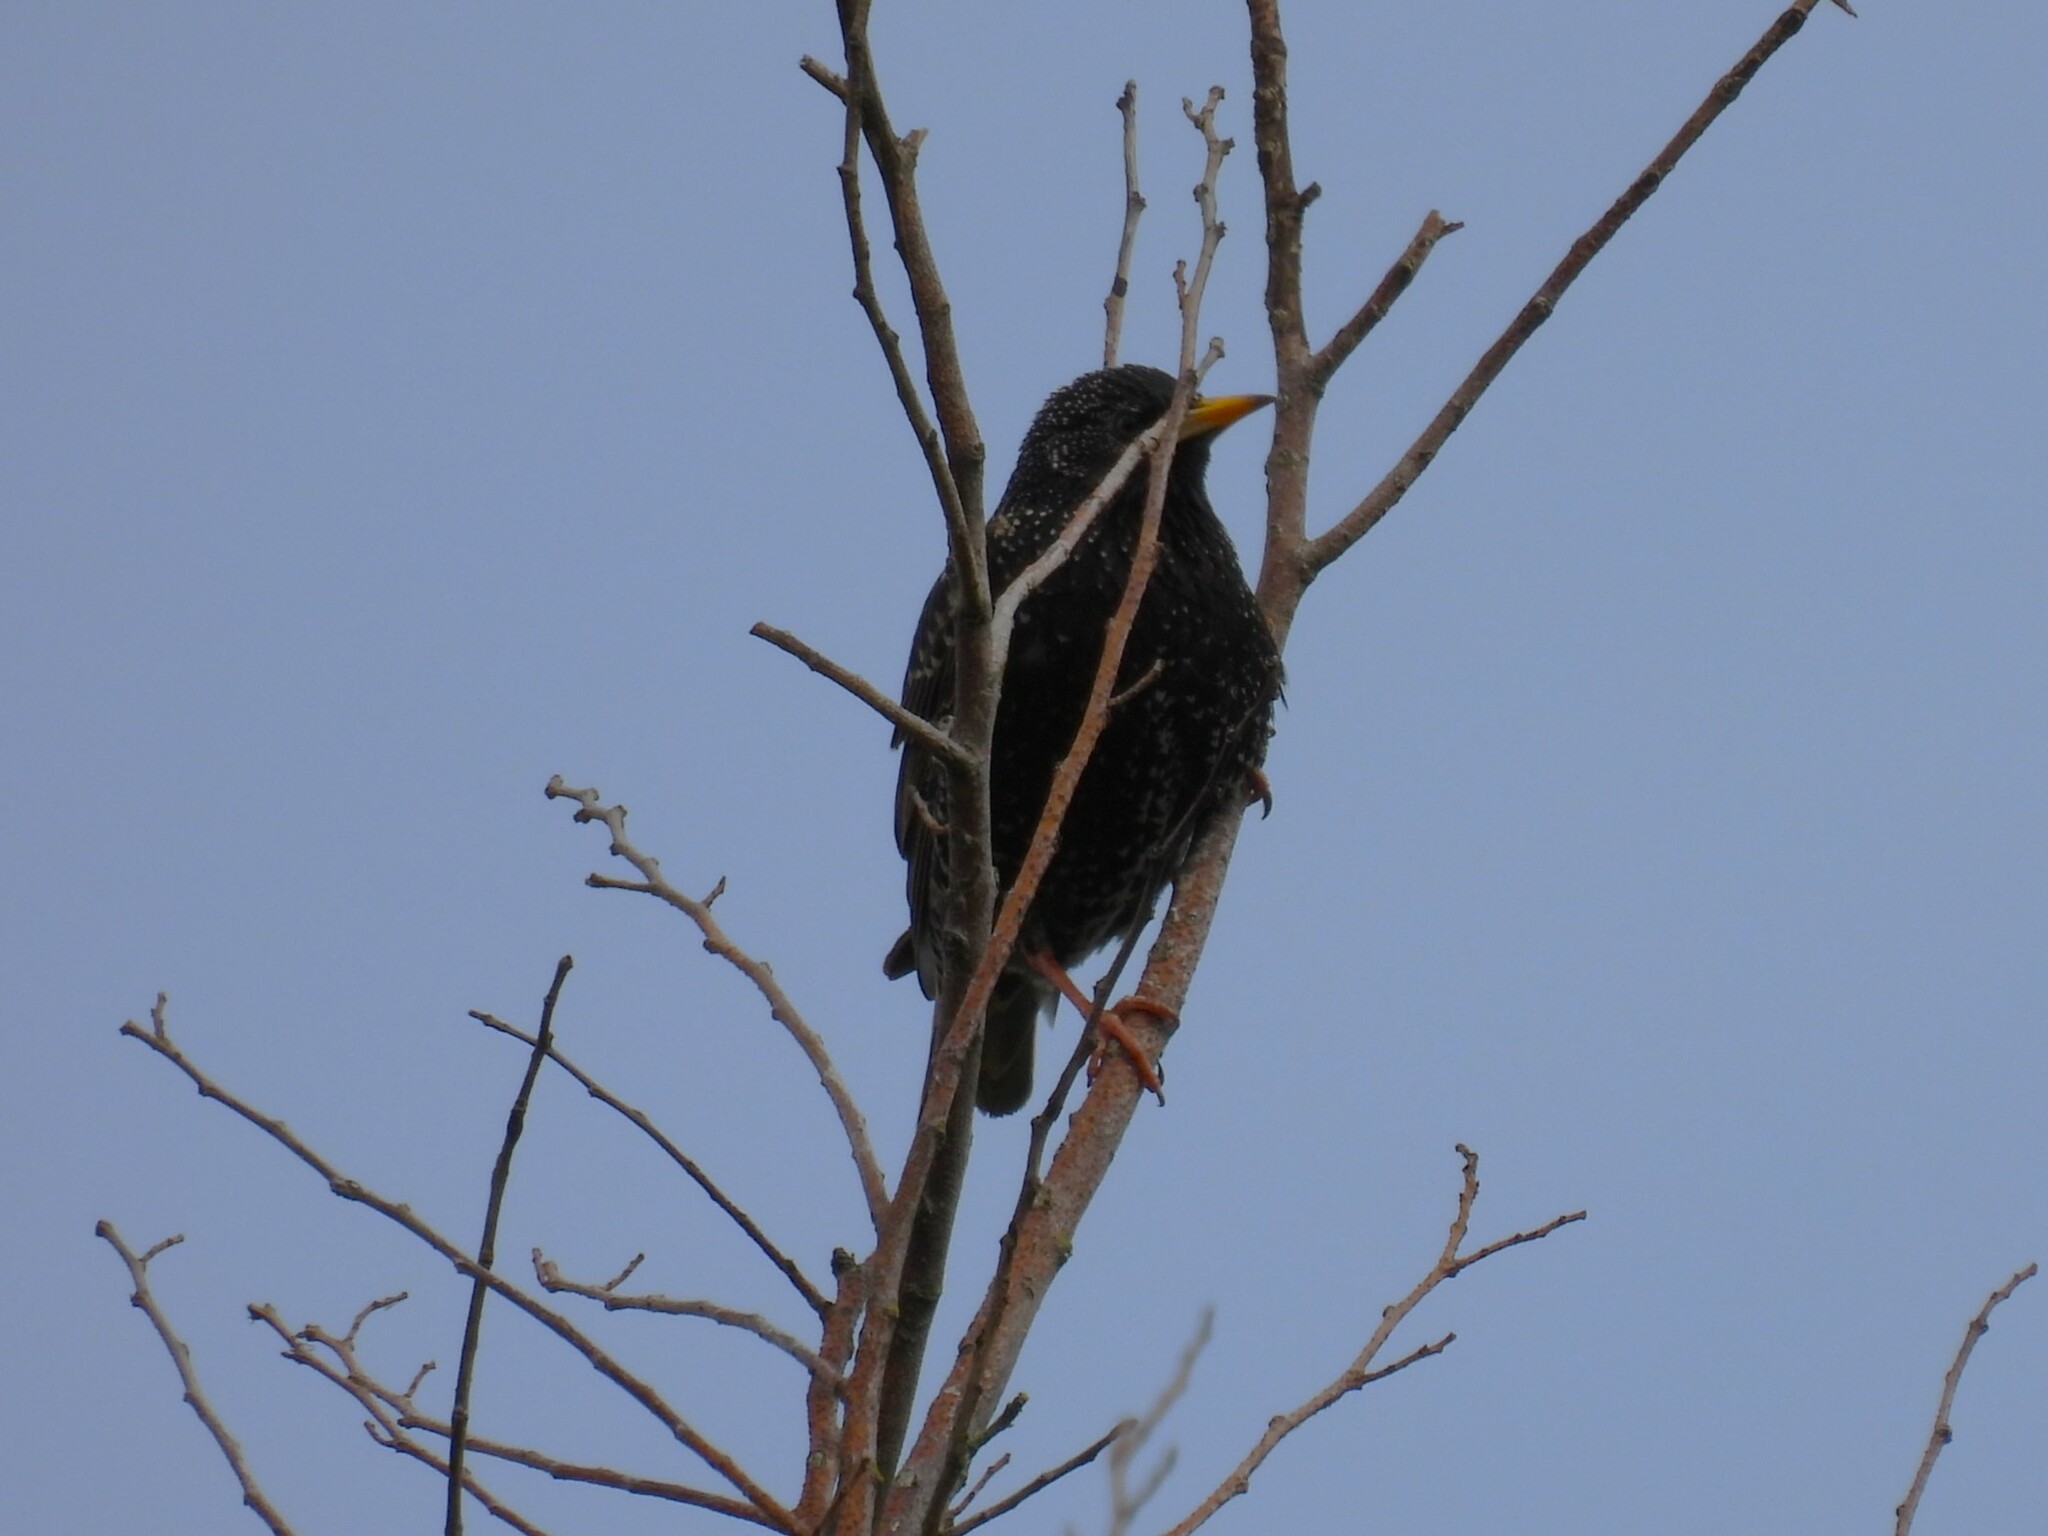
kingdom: Animalia
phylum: Chordata
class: Aves
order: Passeriformes
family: Sturnidae
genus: Sturnus
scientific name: Sturnus vulgaris
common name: Common starling
